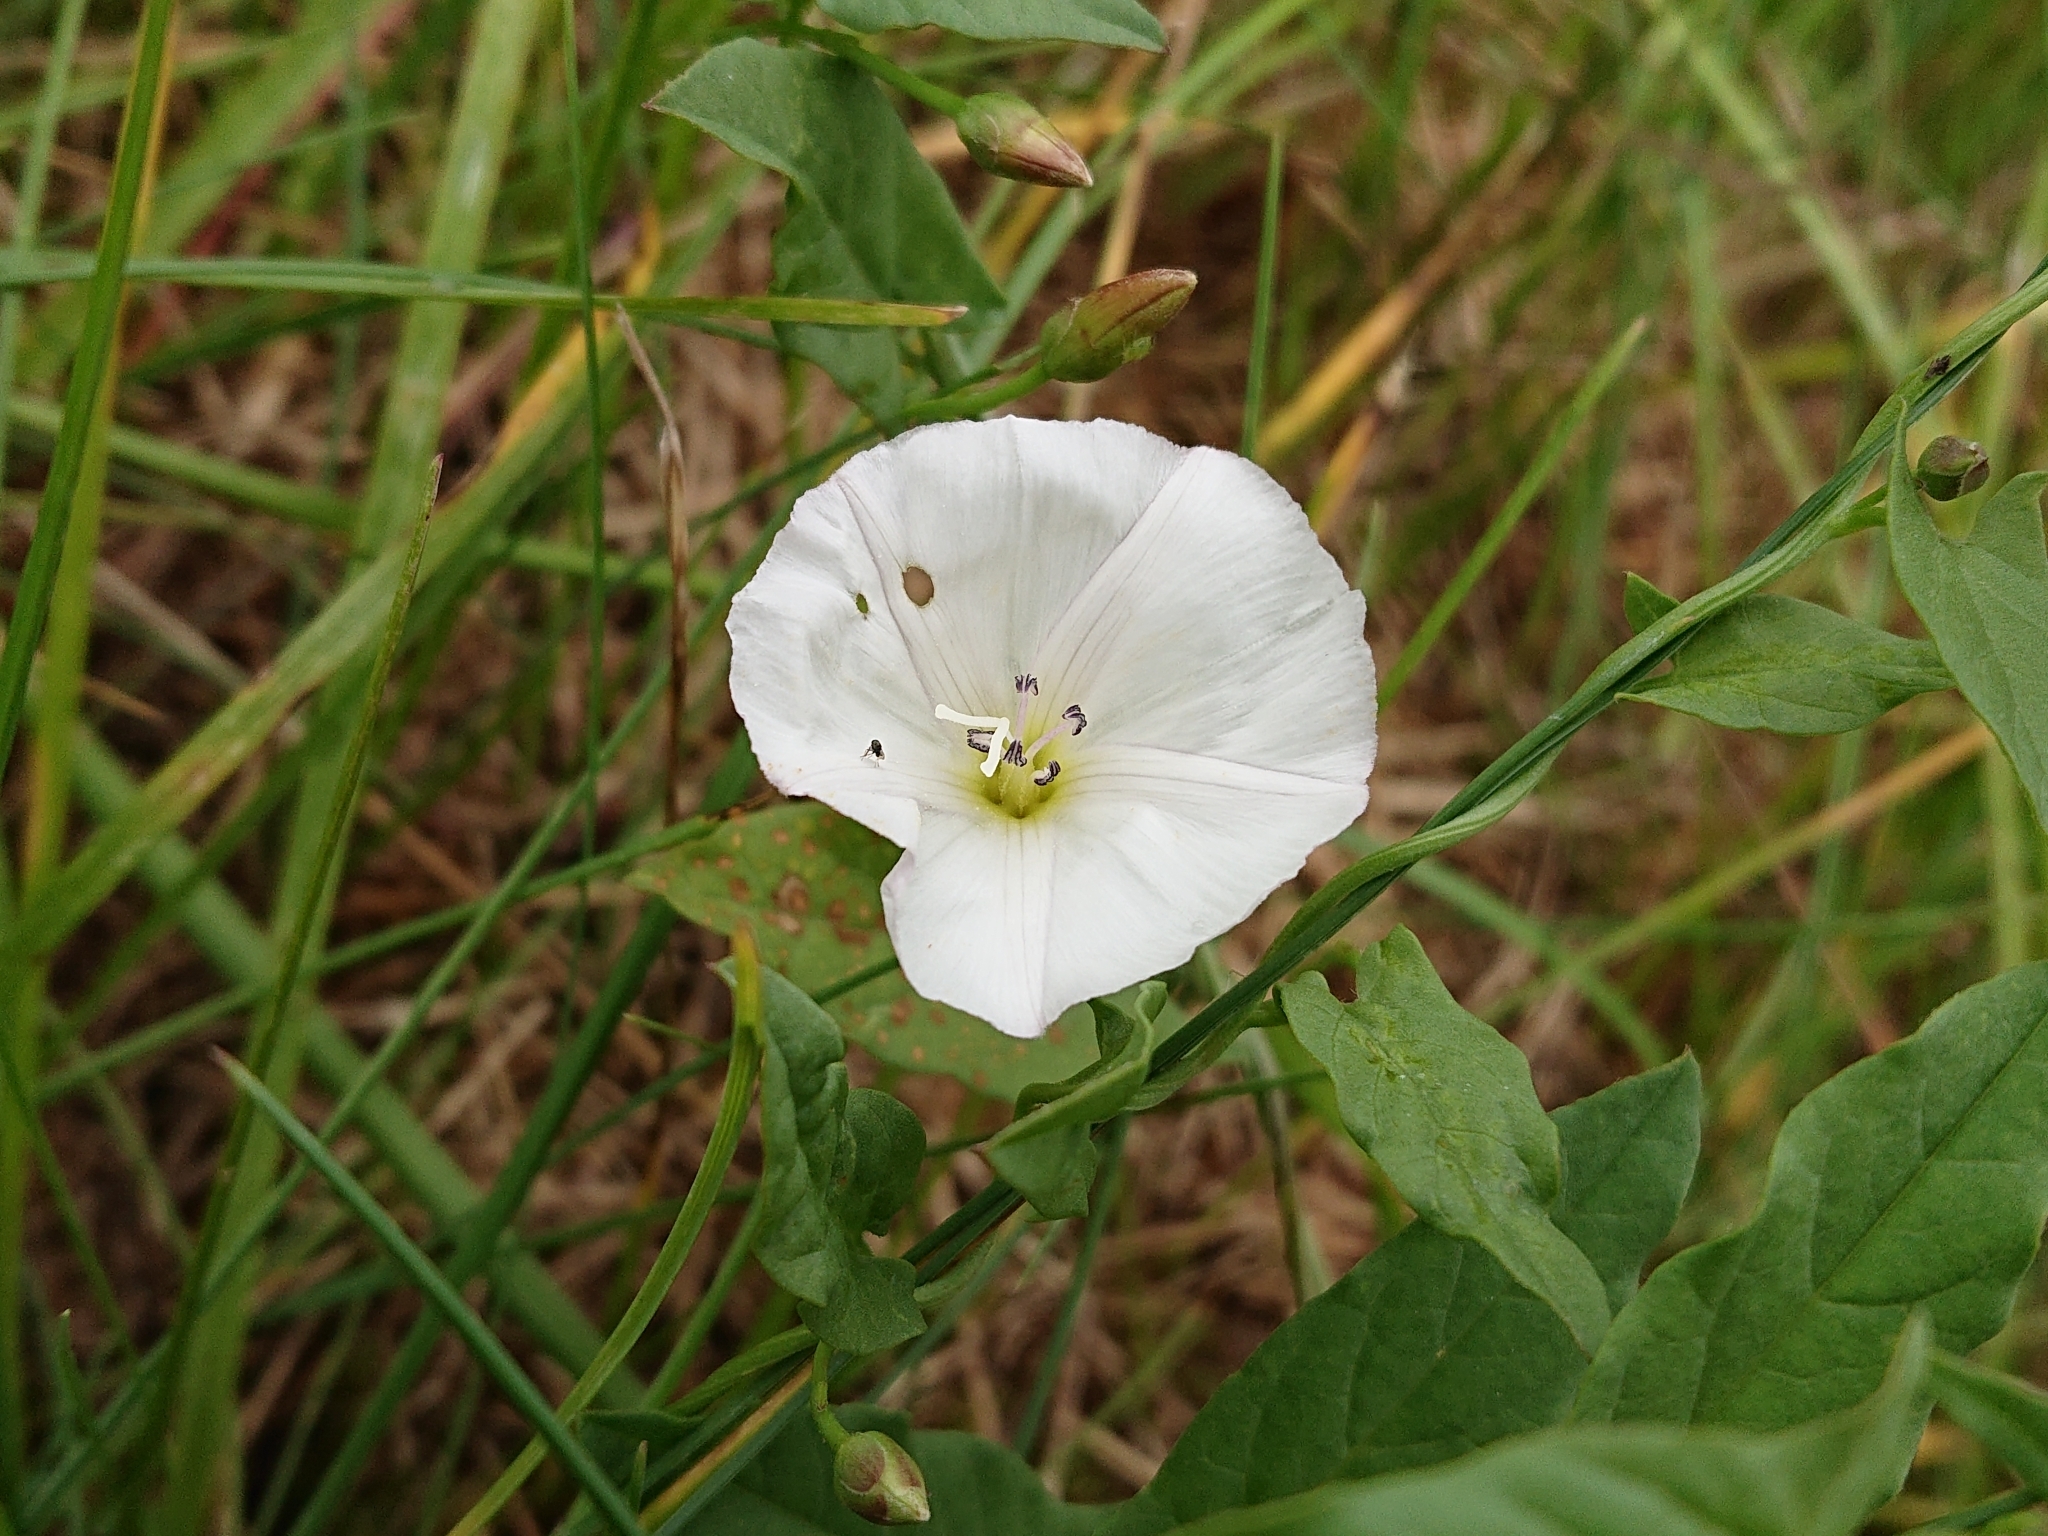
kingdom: Plantae
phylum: Tracheophyta
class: Magnoliopsida
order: Solanales
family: Convolvulaceae
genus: Convolvulus
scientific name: Convolvulus arvensis
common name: Field bindweed
